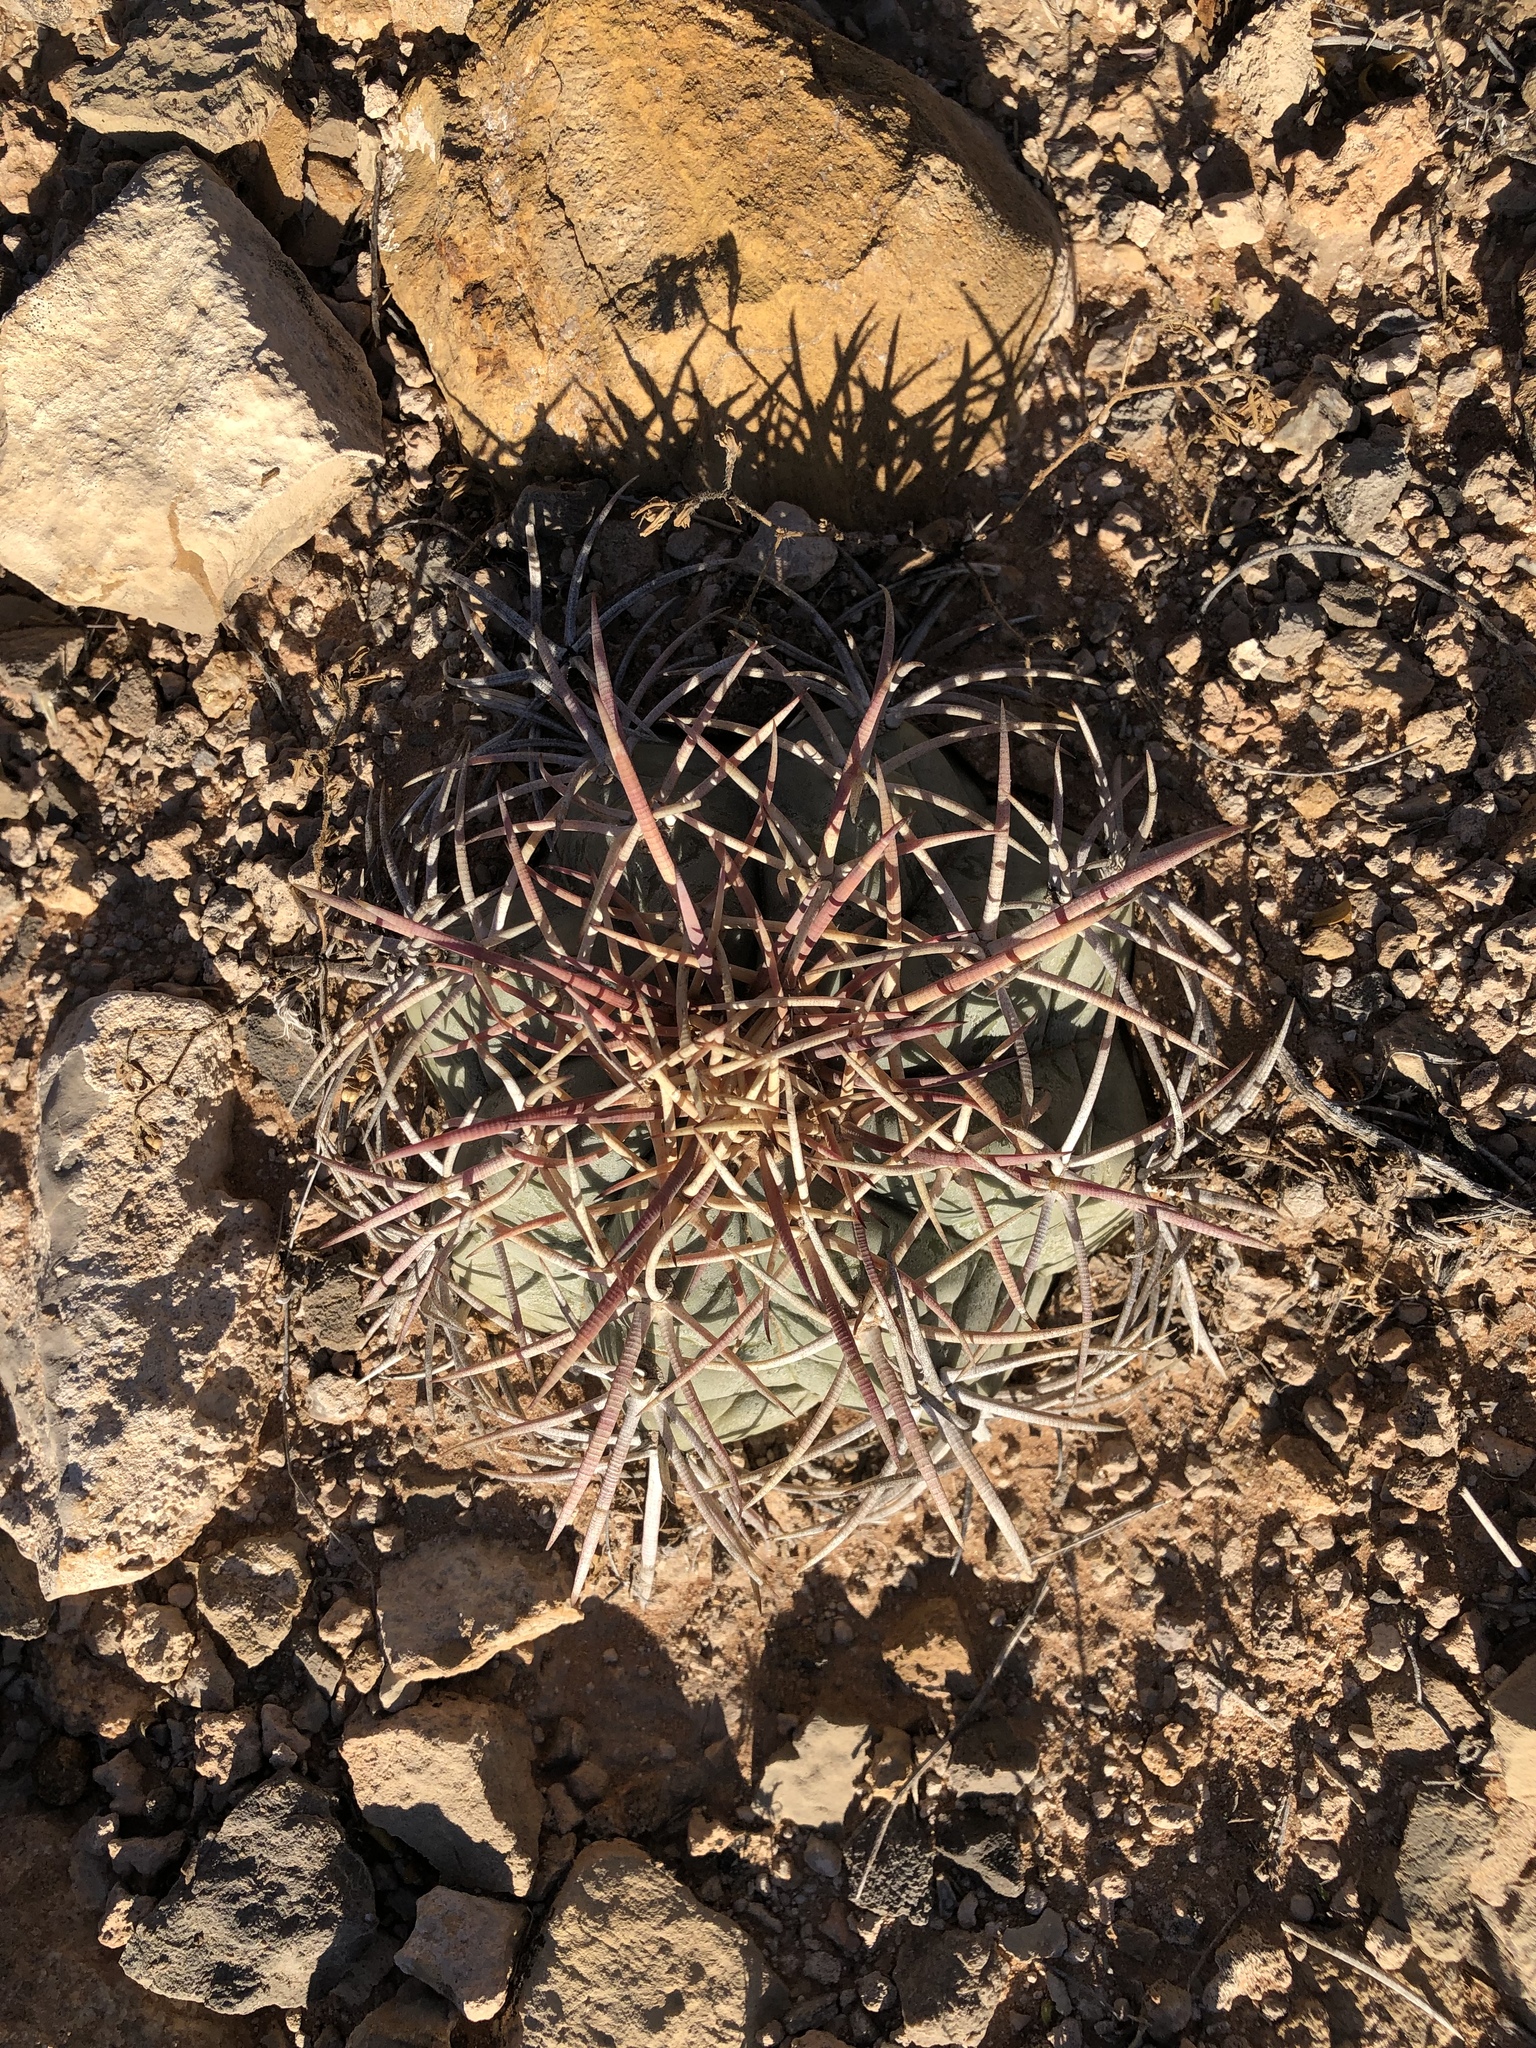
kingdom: Plantae
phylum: Tracheophyta
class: Magnoliopsida
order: Caryophyllales
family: Cactaceae
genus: Echinocactus
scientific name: Echinocactus horizonthalonius
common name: Devilshead
